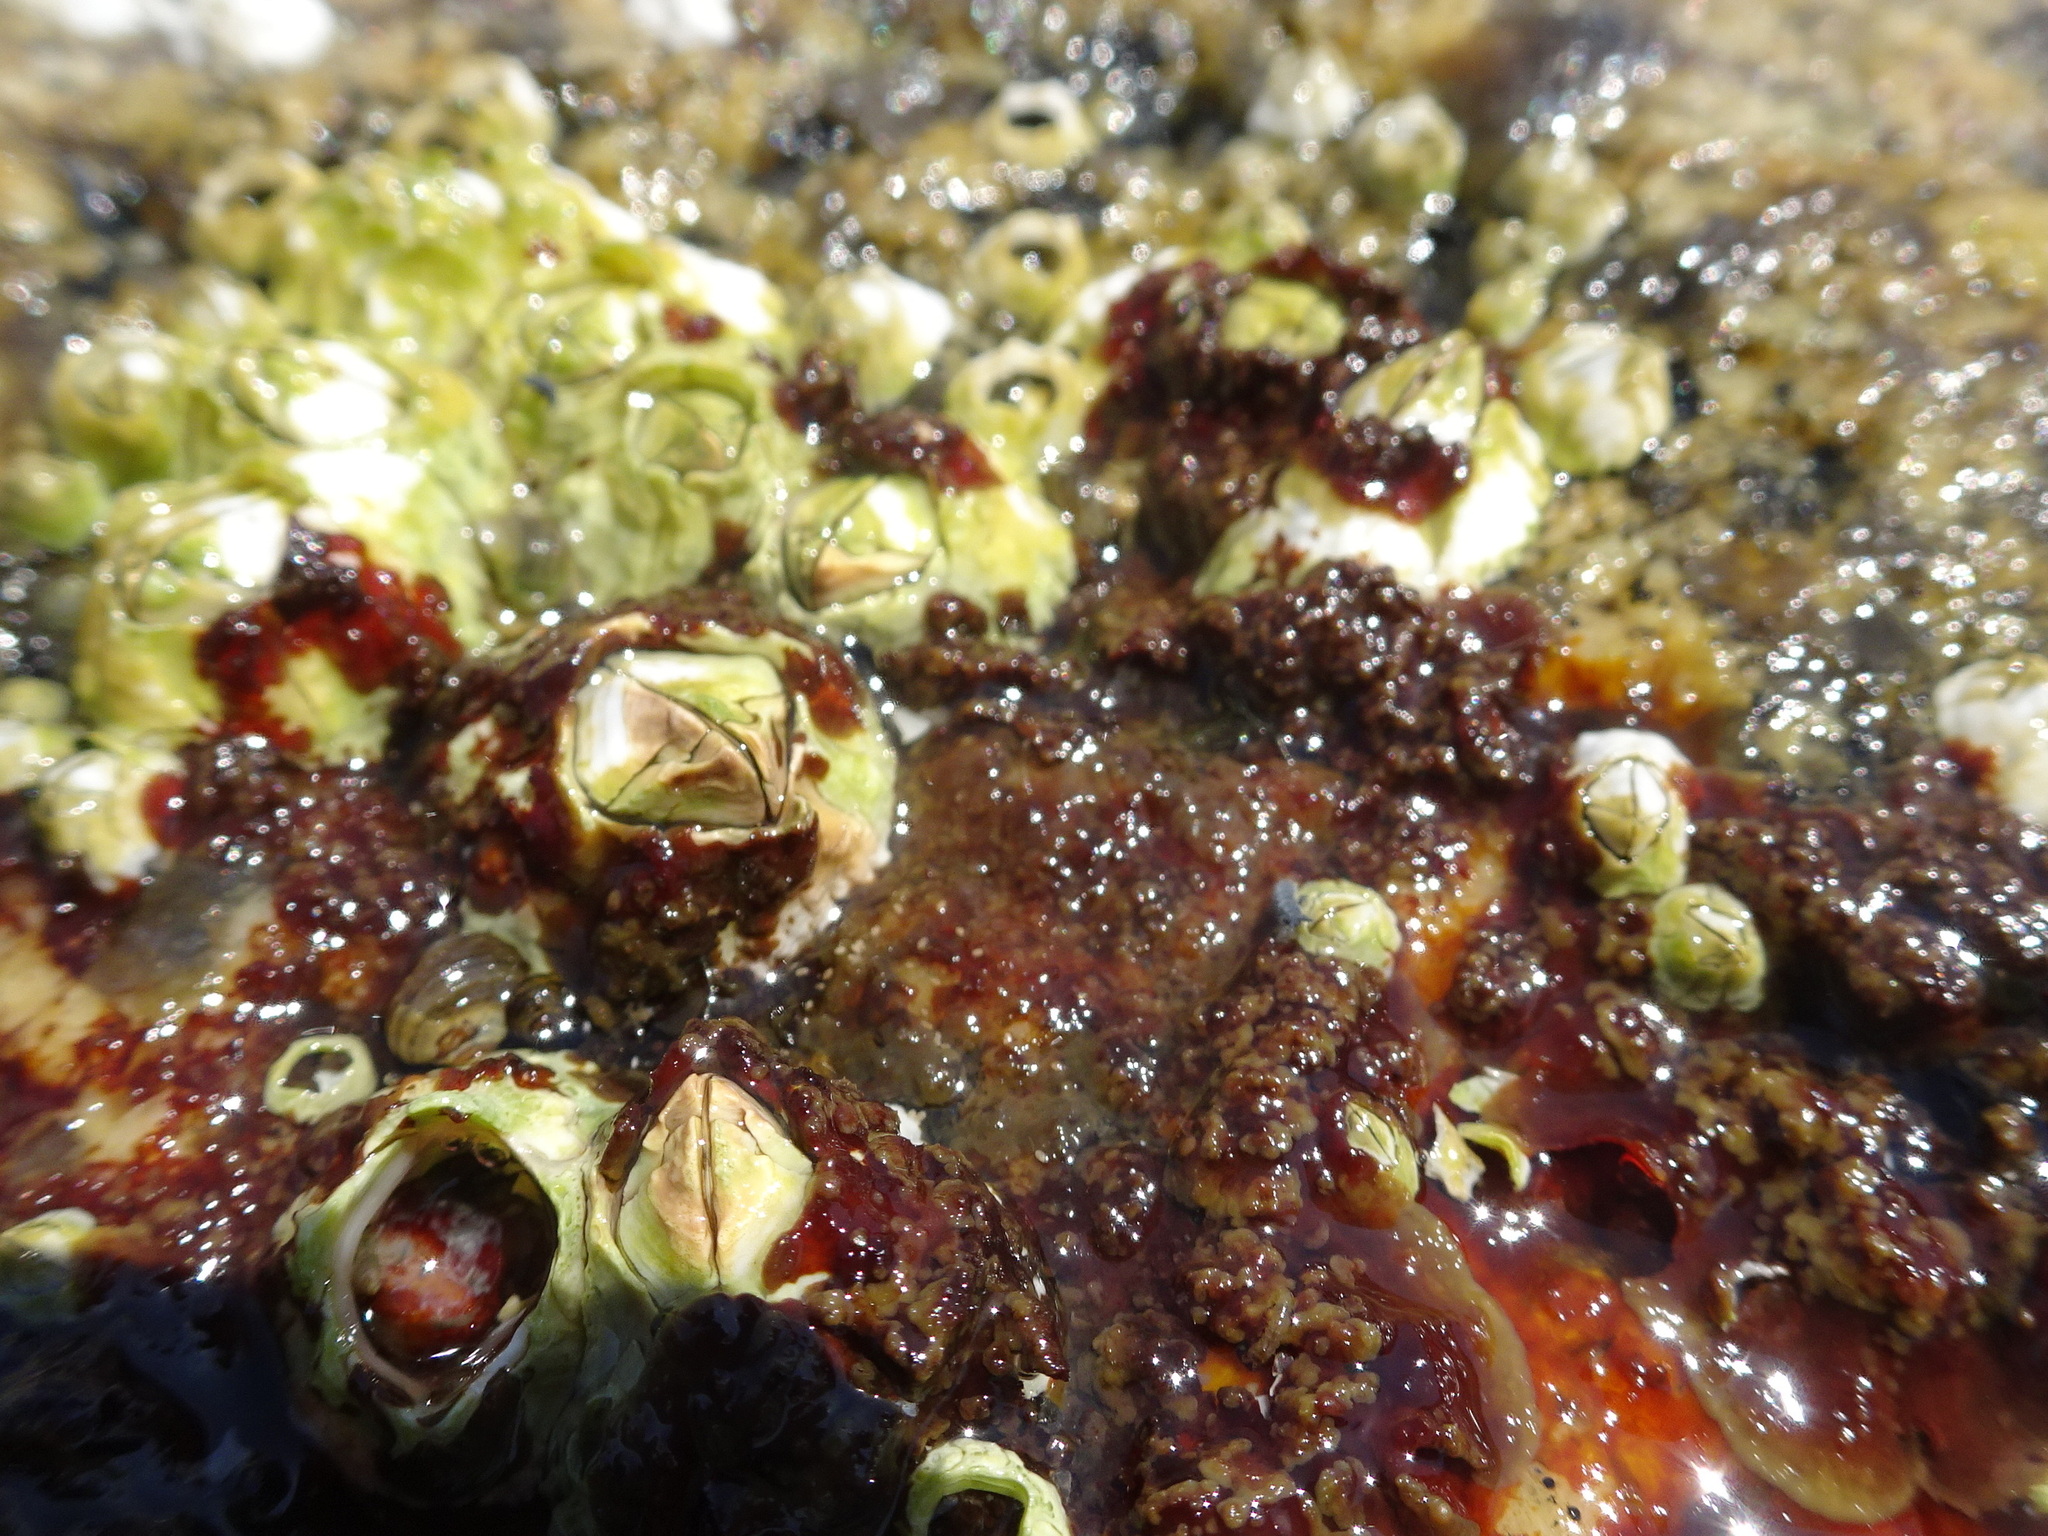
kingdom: Animalia
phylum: Arthropoda
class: Maxillopoda
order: Sessilia
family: Archaeobalanidae
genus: Semibalanus
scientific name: Semibalanus balanoides
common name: Acorn barnacle
